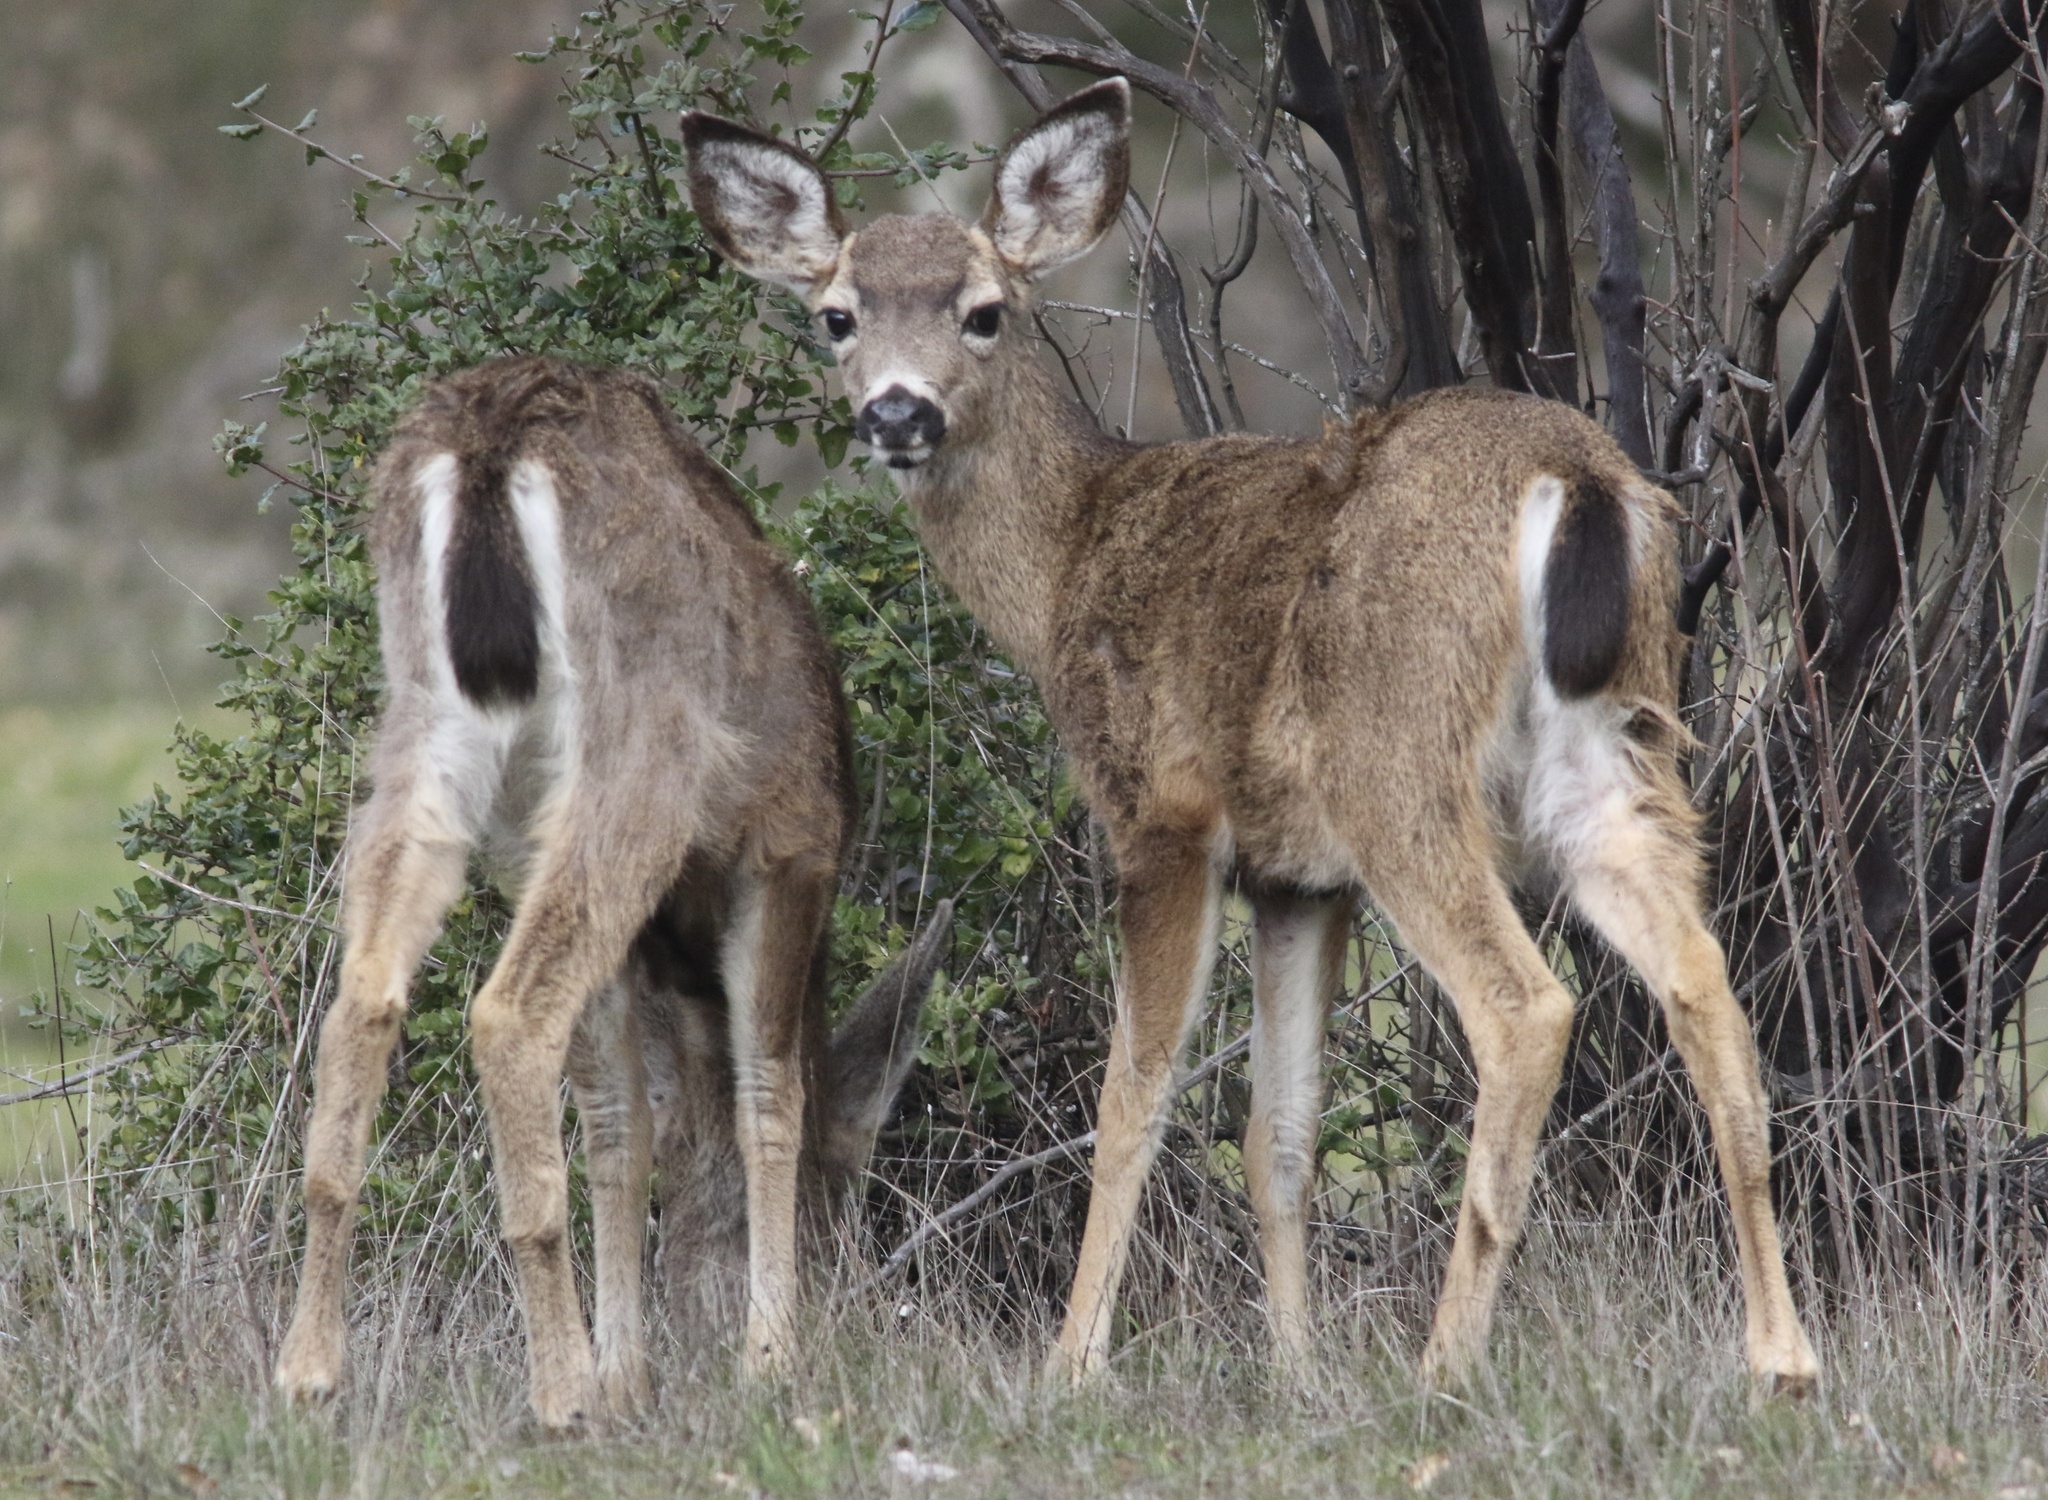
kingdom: Animalia
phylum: Chordata
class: Mammalia
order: Artiodactyla
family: Cervidae
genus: Odocoileus
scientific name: Odocoileus hemionus
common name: Mule deer
